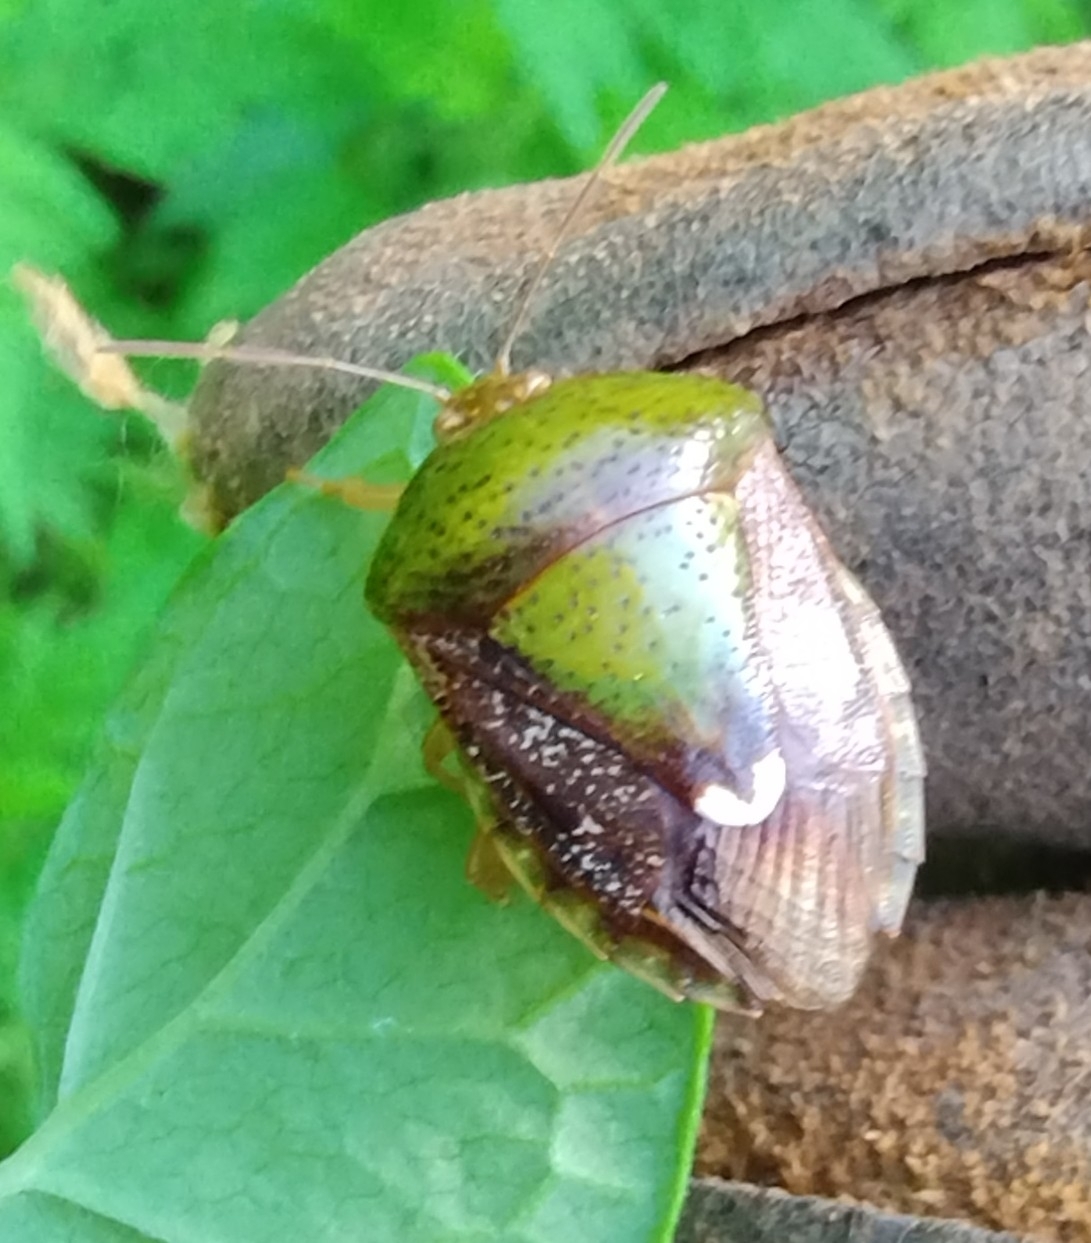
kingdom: Animalia
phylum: Arthropoda
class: Insecta
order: Hemiptera
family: Pentatomidae
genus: Edessa
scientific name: Edessa bifida
